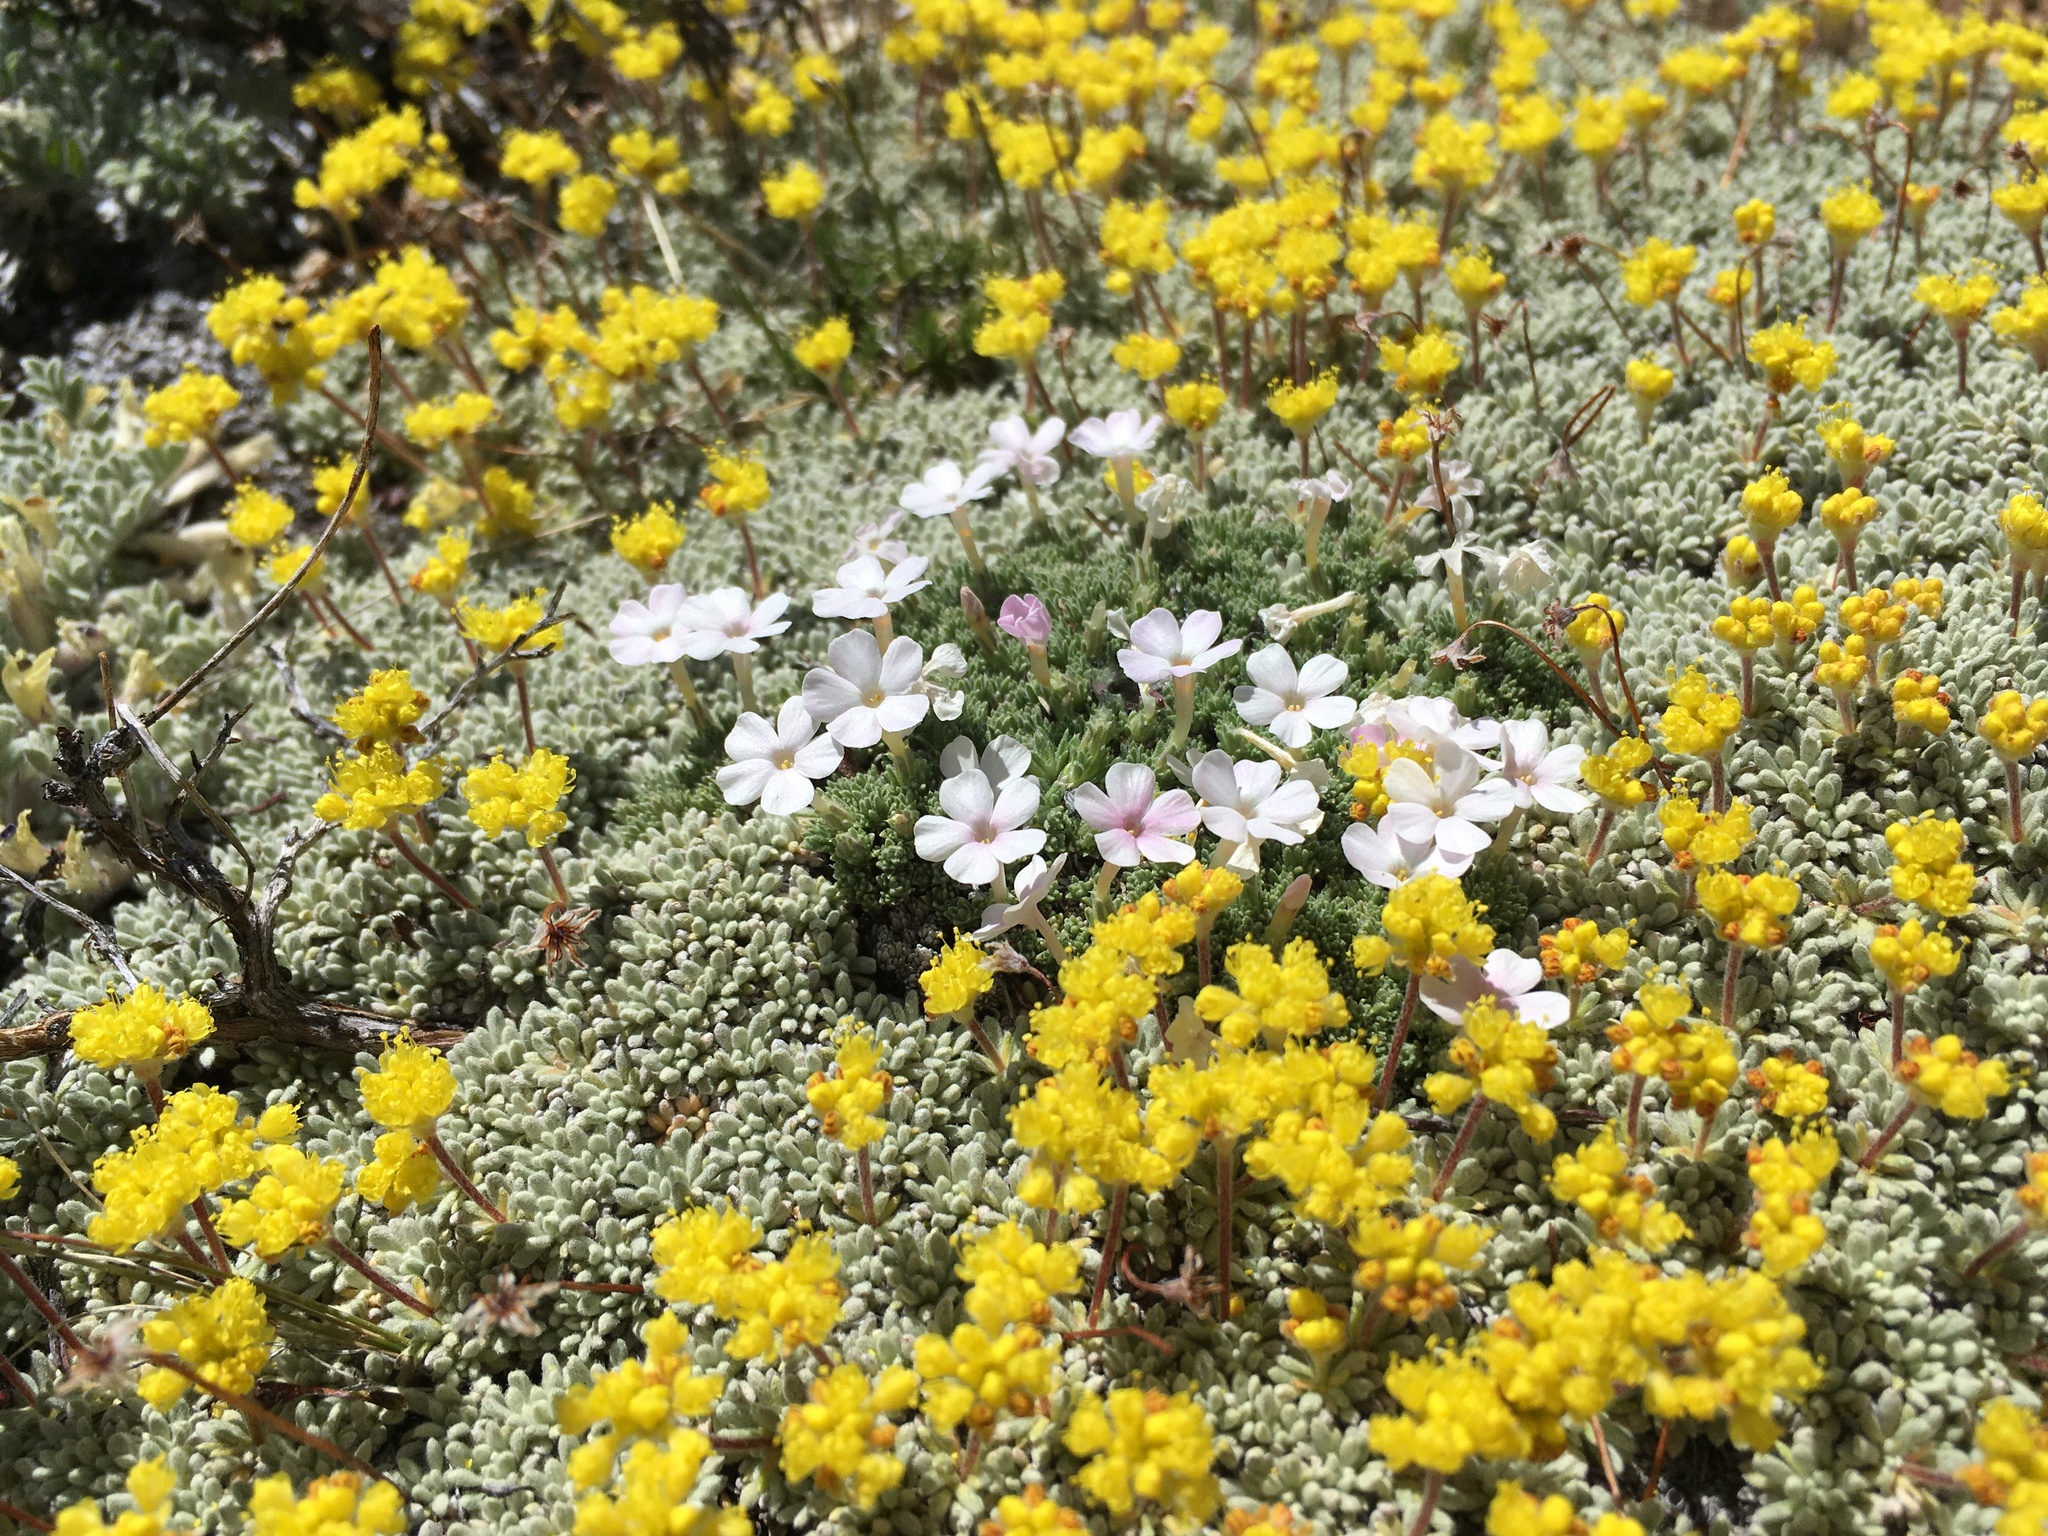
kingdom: Plantae
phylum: Tracheophyta
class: Magnoliopsida
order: Ericales
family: Polemoniaceae
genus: Phlox
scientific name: Phlox condensata
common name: Compact phlox
